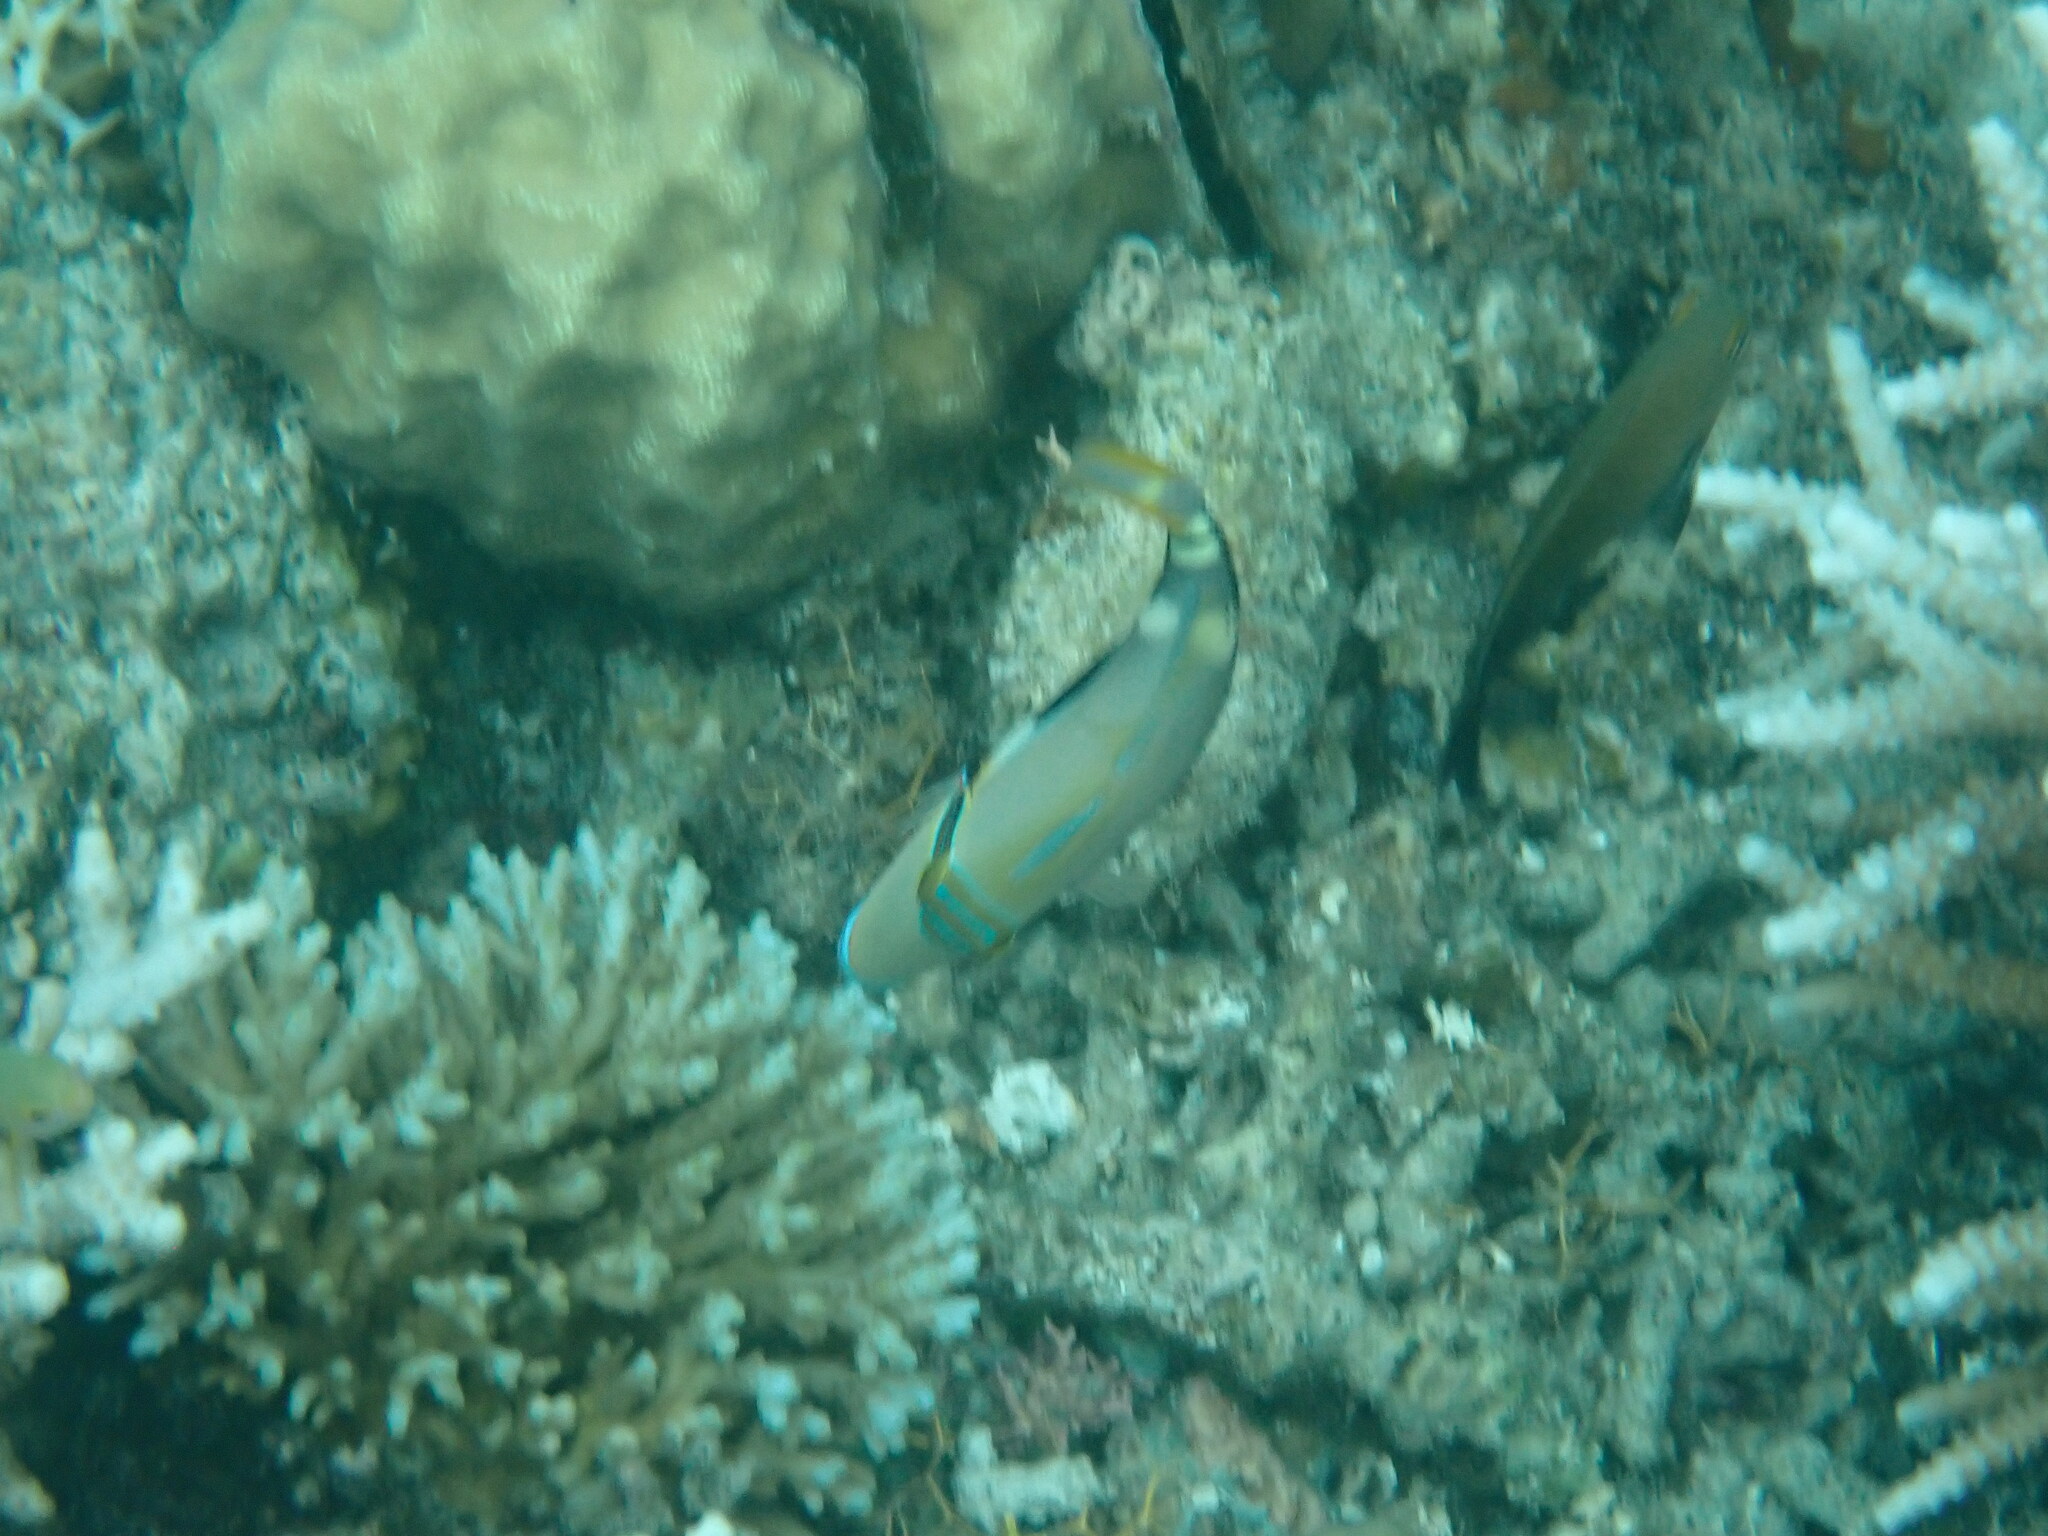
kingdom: Animalia
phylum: Chordata
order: Tetraodontiformes
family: Balistidae
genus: Rhinecanthus
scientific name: Rhinecanthus aculeatus
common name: White-banded triggerfish
